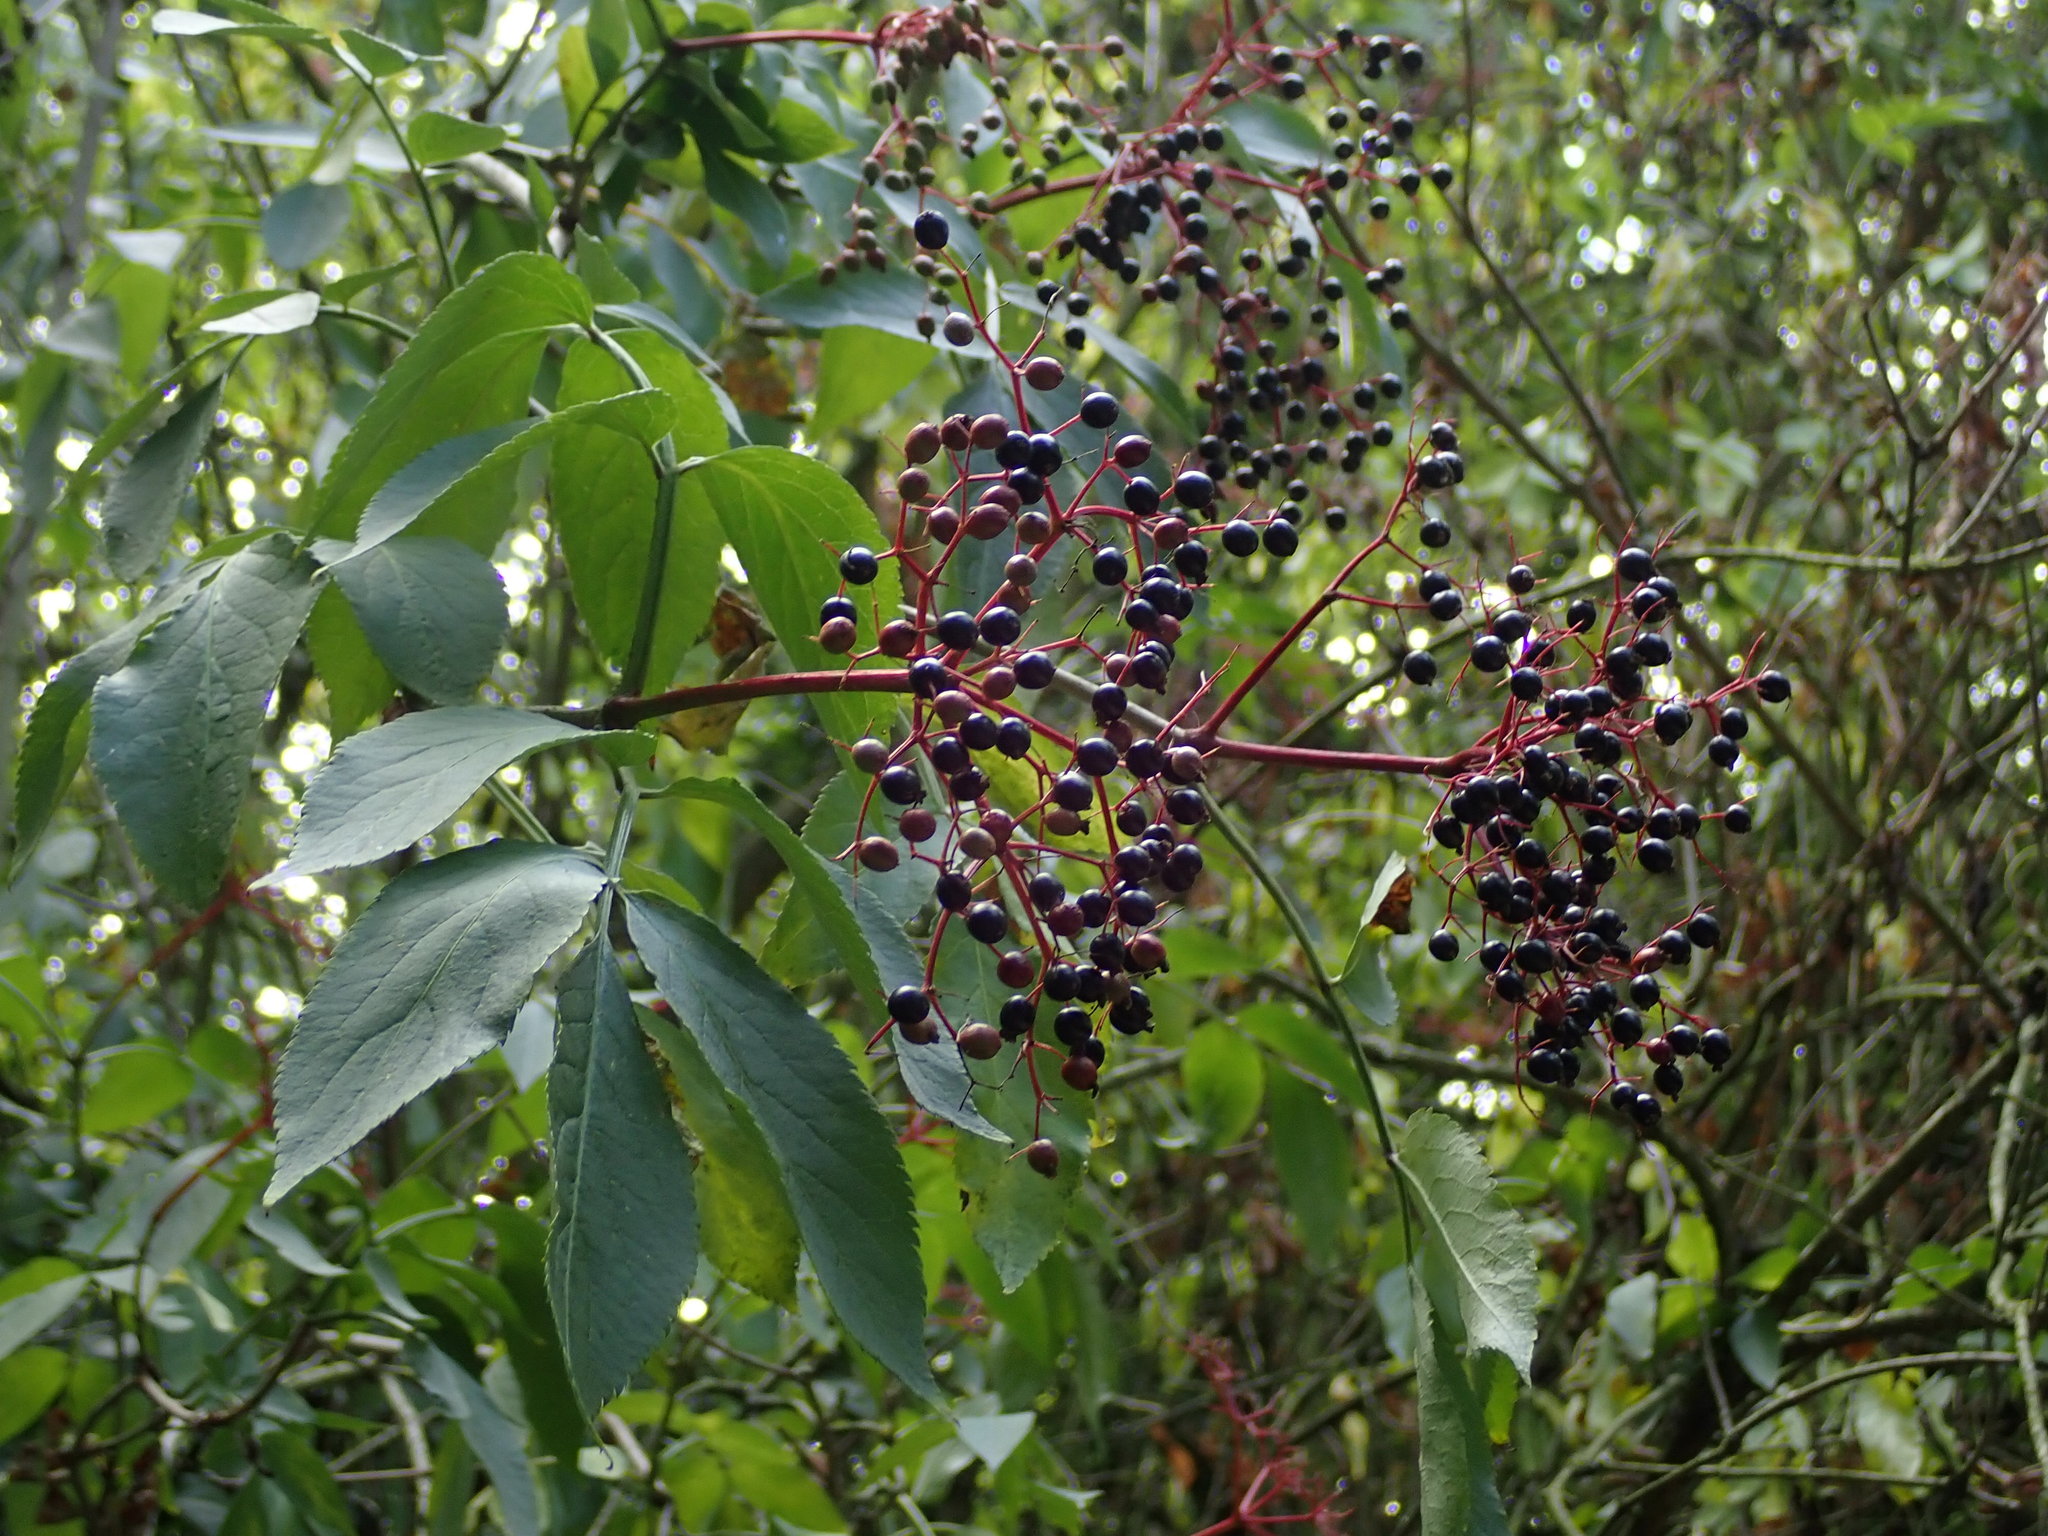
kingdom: Plantae
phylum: Tracheophyta
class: Magnoliopsida
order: Dipsacales
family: Viburnaceae
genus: Sambucus
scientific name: Sambucus nigra
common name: Elder
